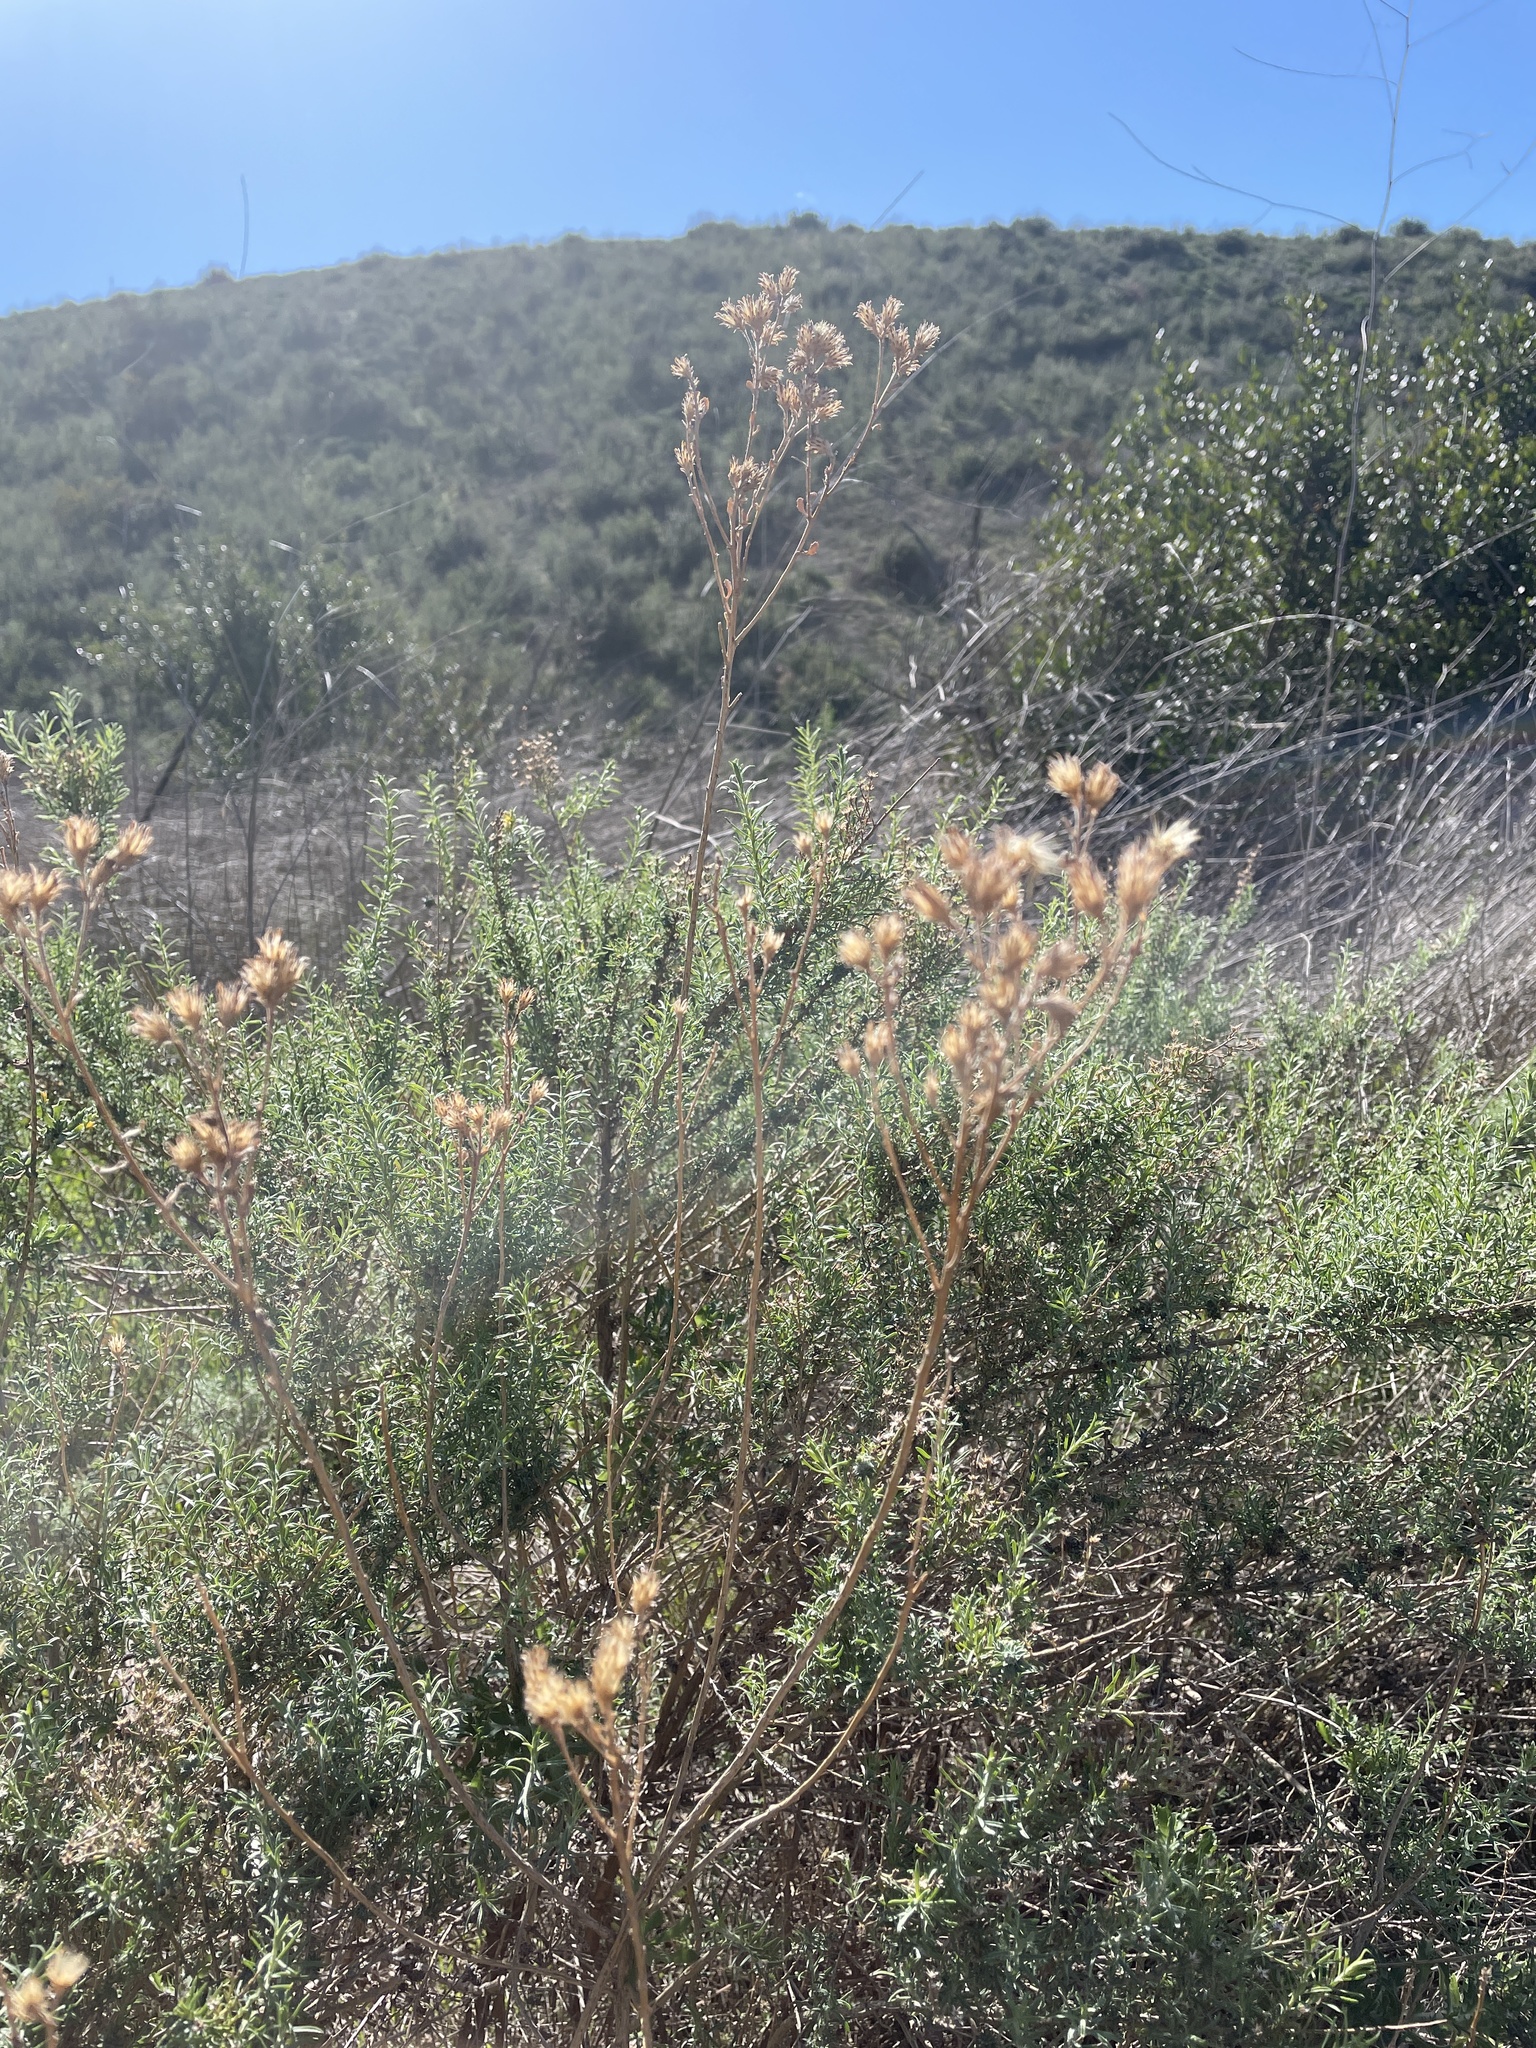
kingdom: Plantae
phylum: Tracheophyta
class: Magnoliopsida
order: Asterales
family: Asteraceae
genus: Ericameria
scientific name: Ericameria palmeri
